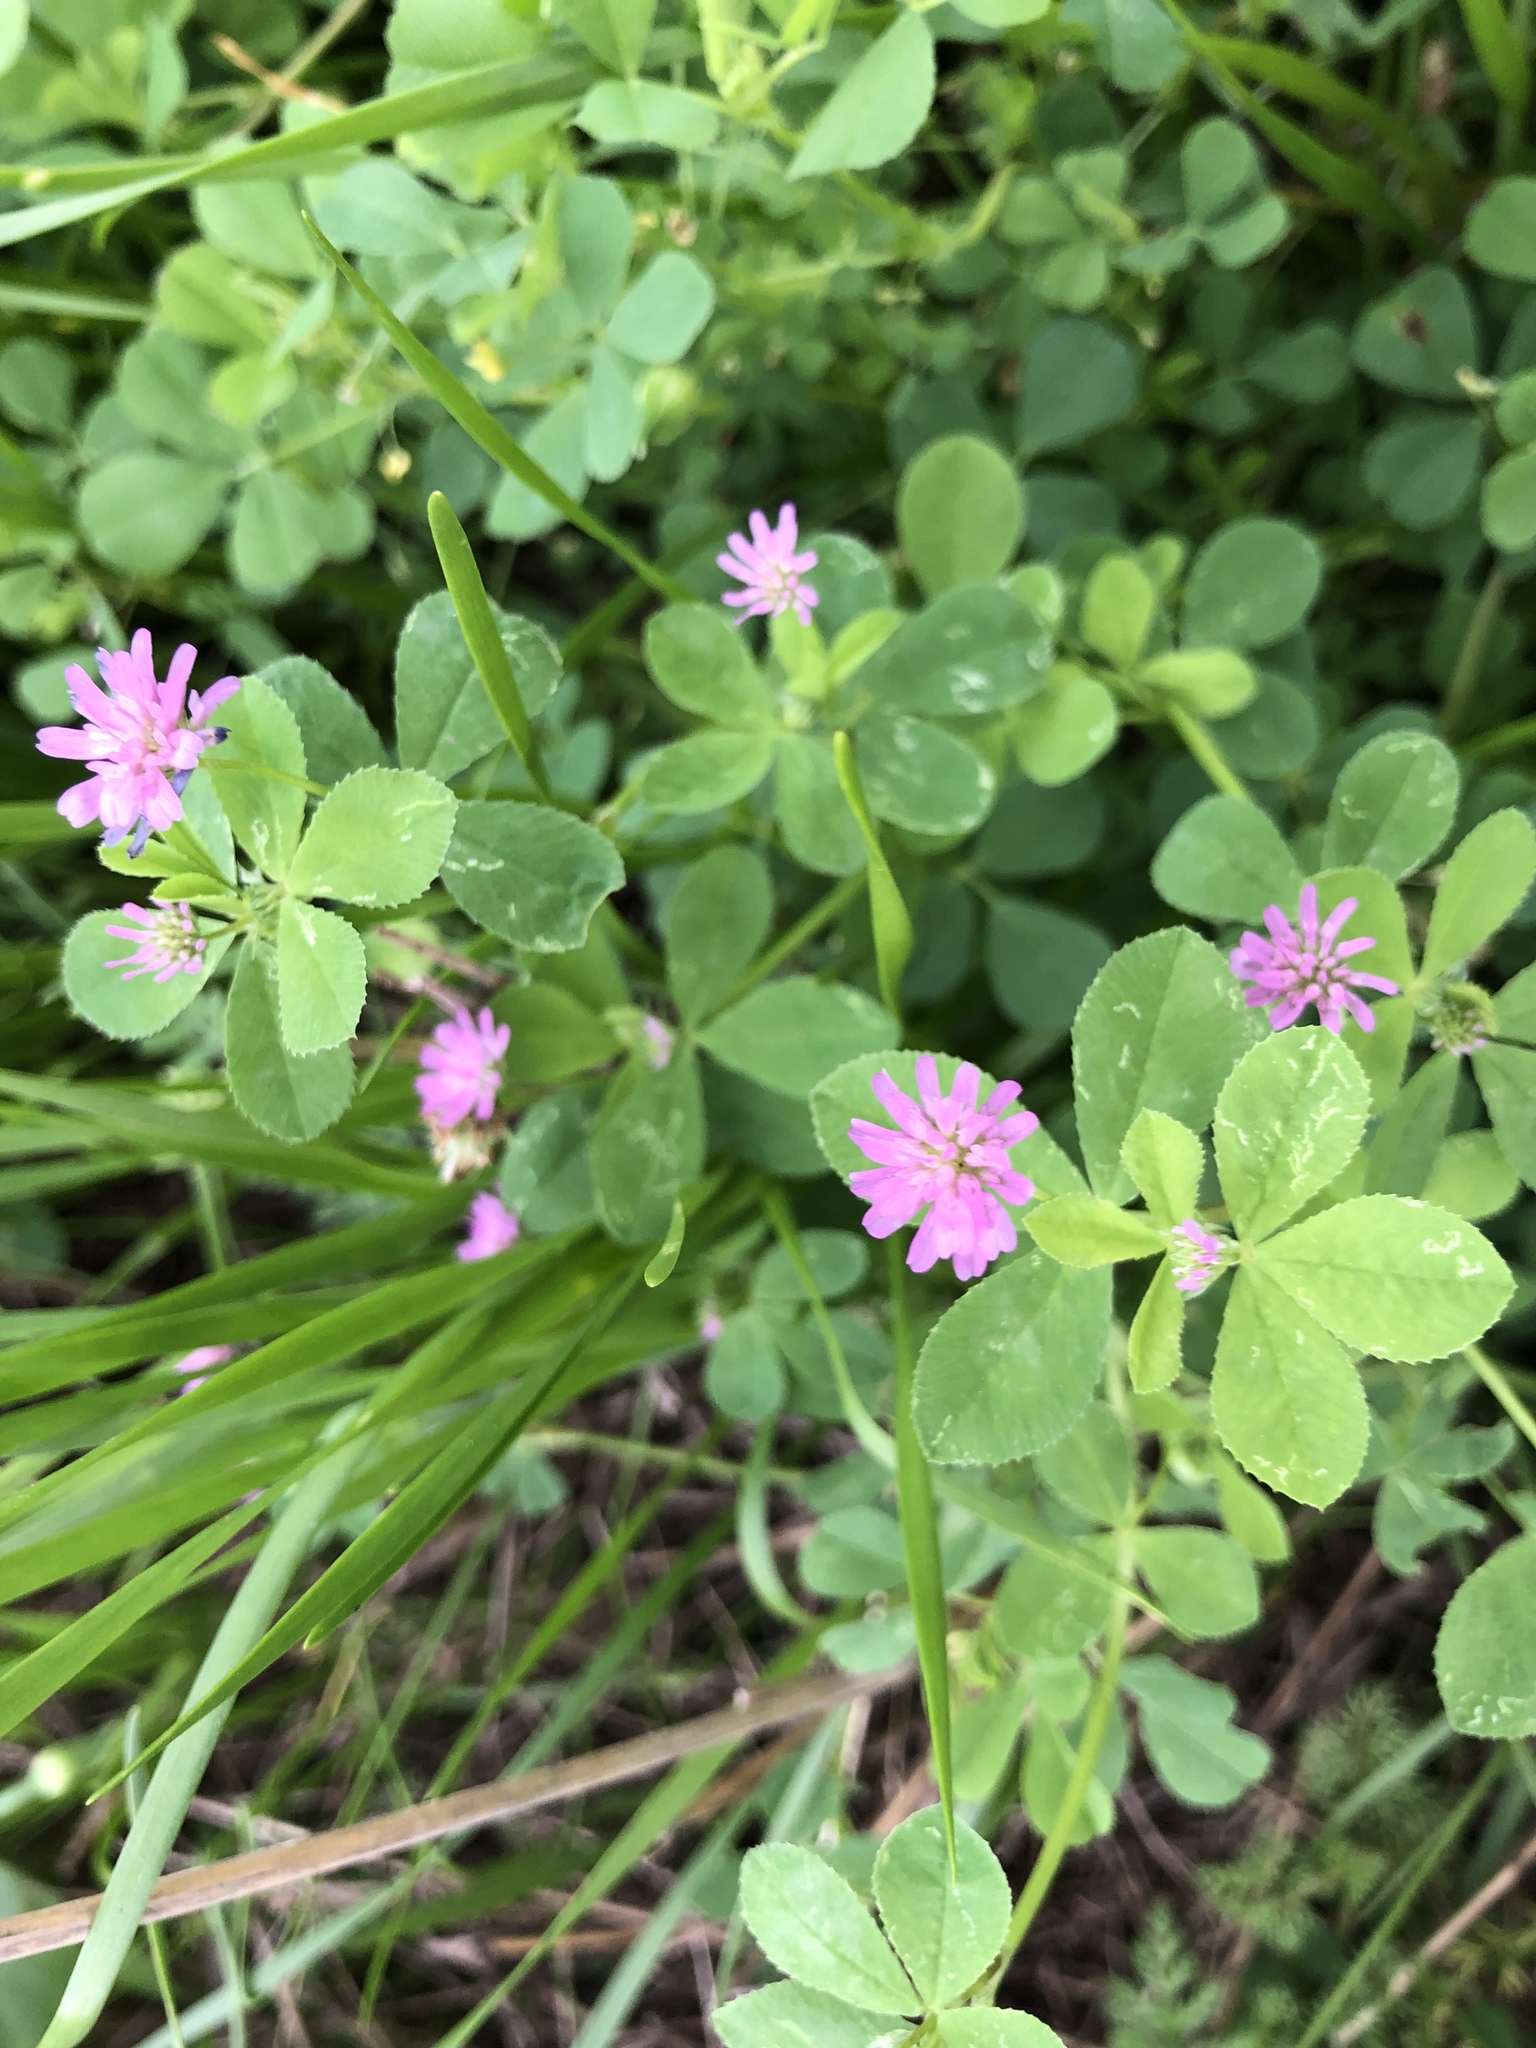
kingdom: Plantae
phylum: Tracheophyta
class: Magnoliopsida
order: Fabales
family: Fabaceae
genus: Trifolium
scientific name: Trifolium resupinatum
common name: Reversed clover
